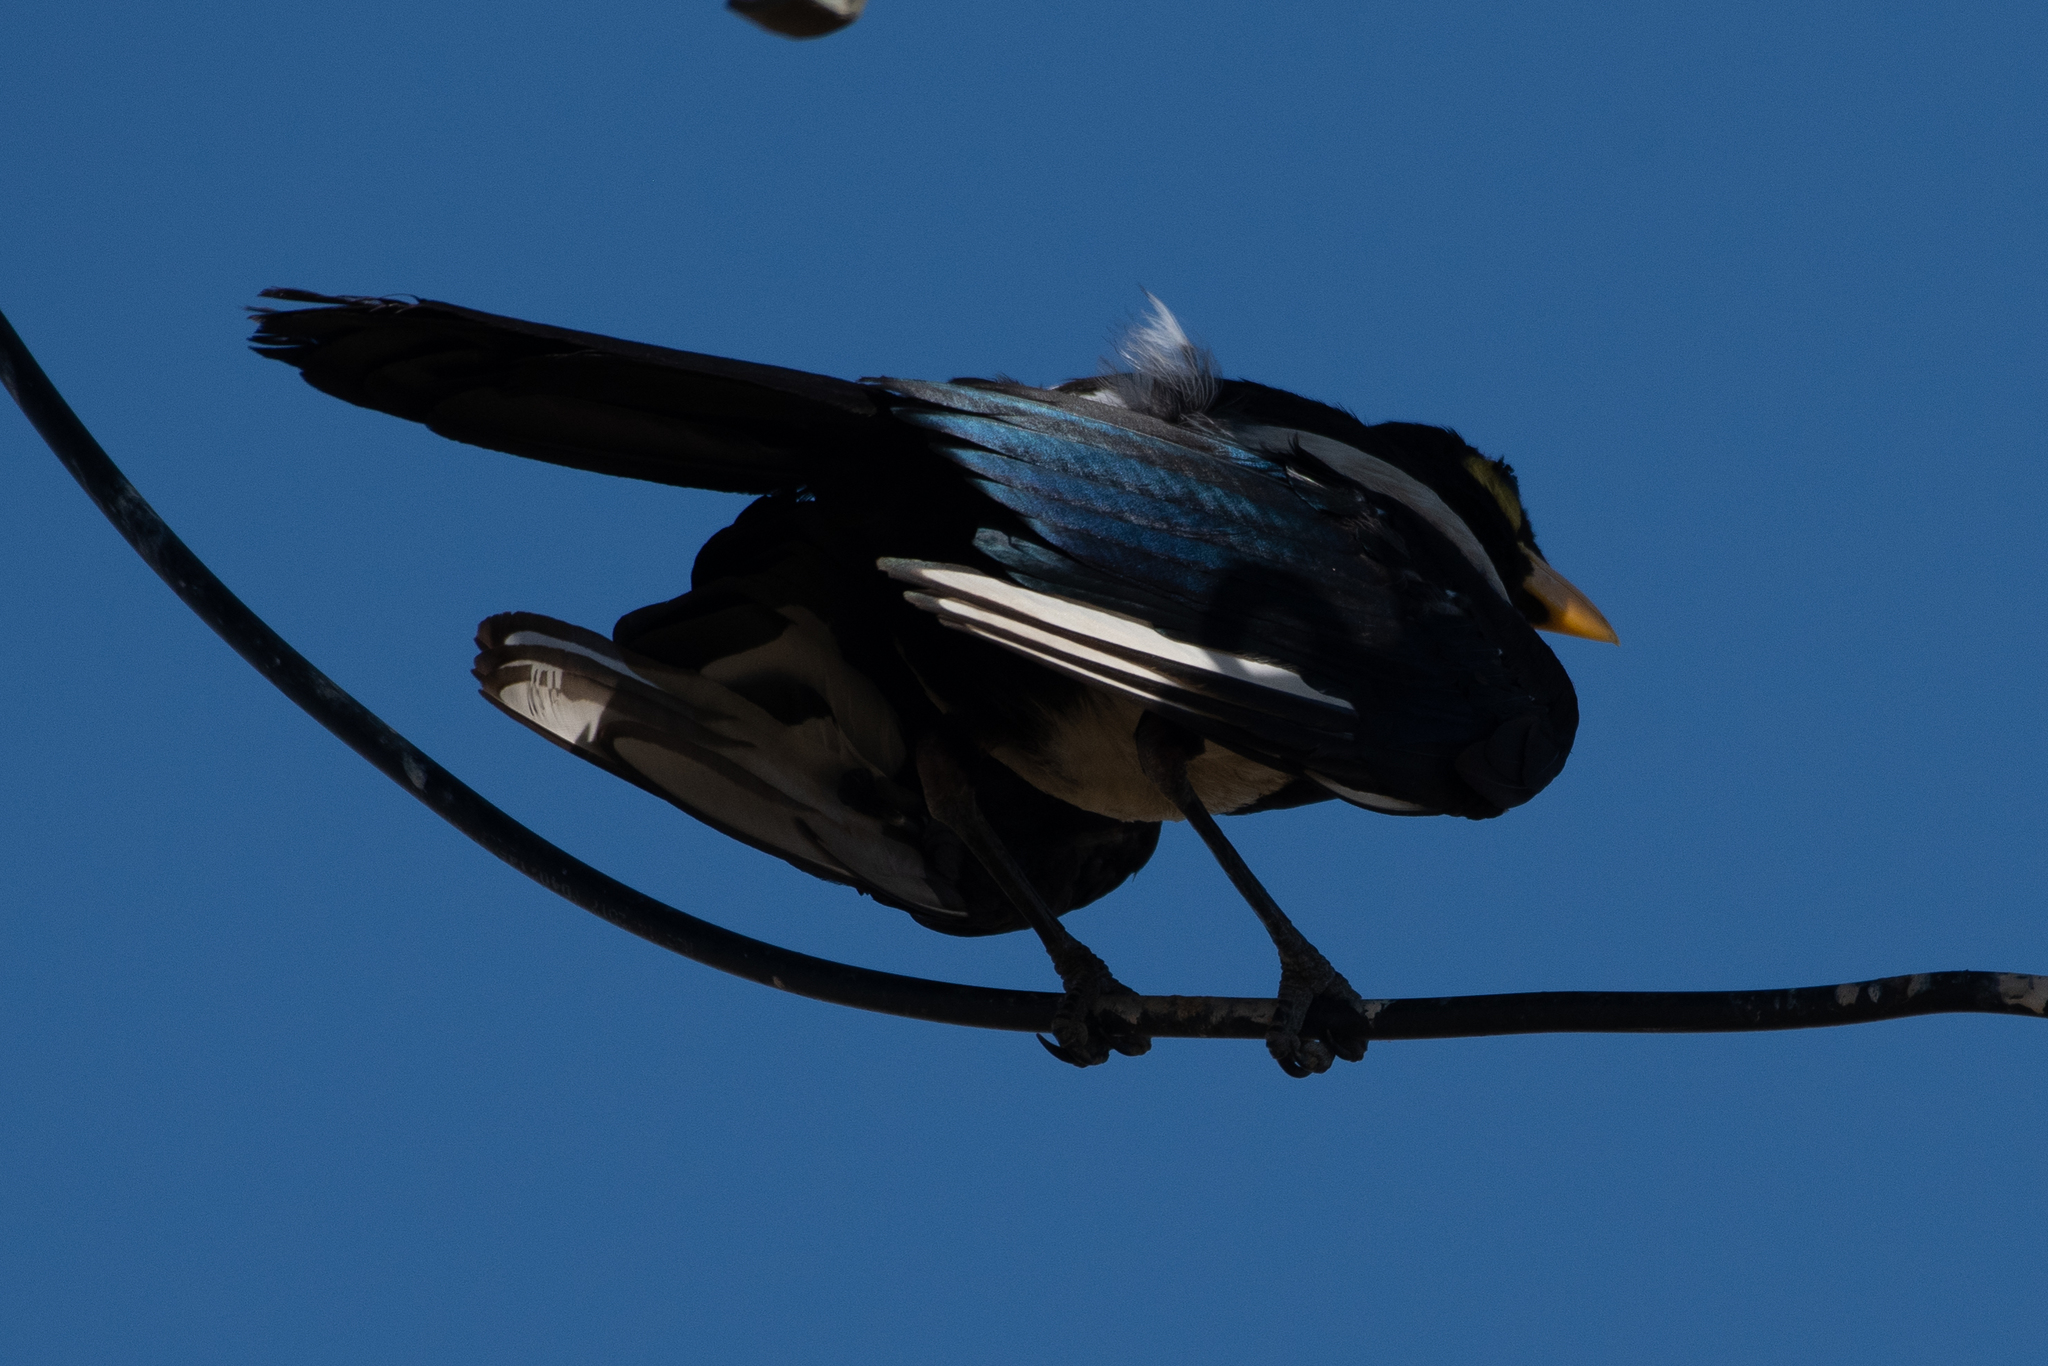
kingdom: Animalia
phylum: Chordata
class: Aves
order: Passeriformes
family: Corvidae
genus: Pica
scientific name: Pica nuttalli
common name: Yellow-billed magpie
